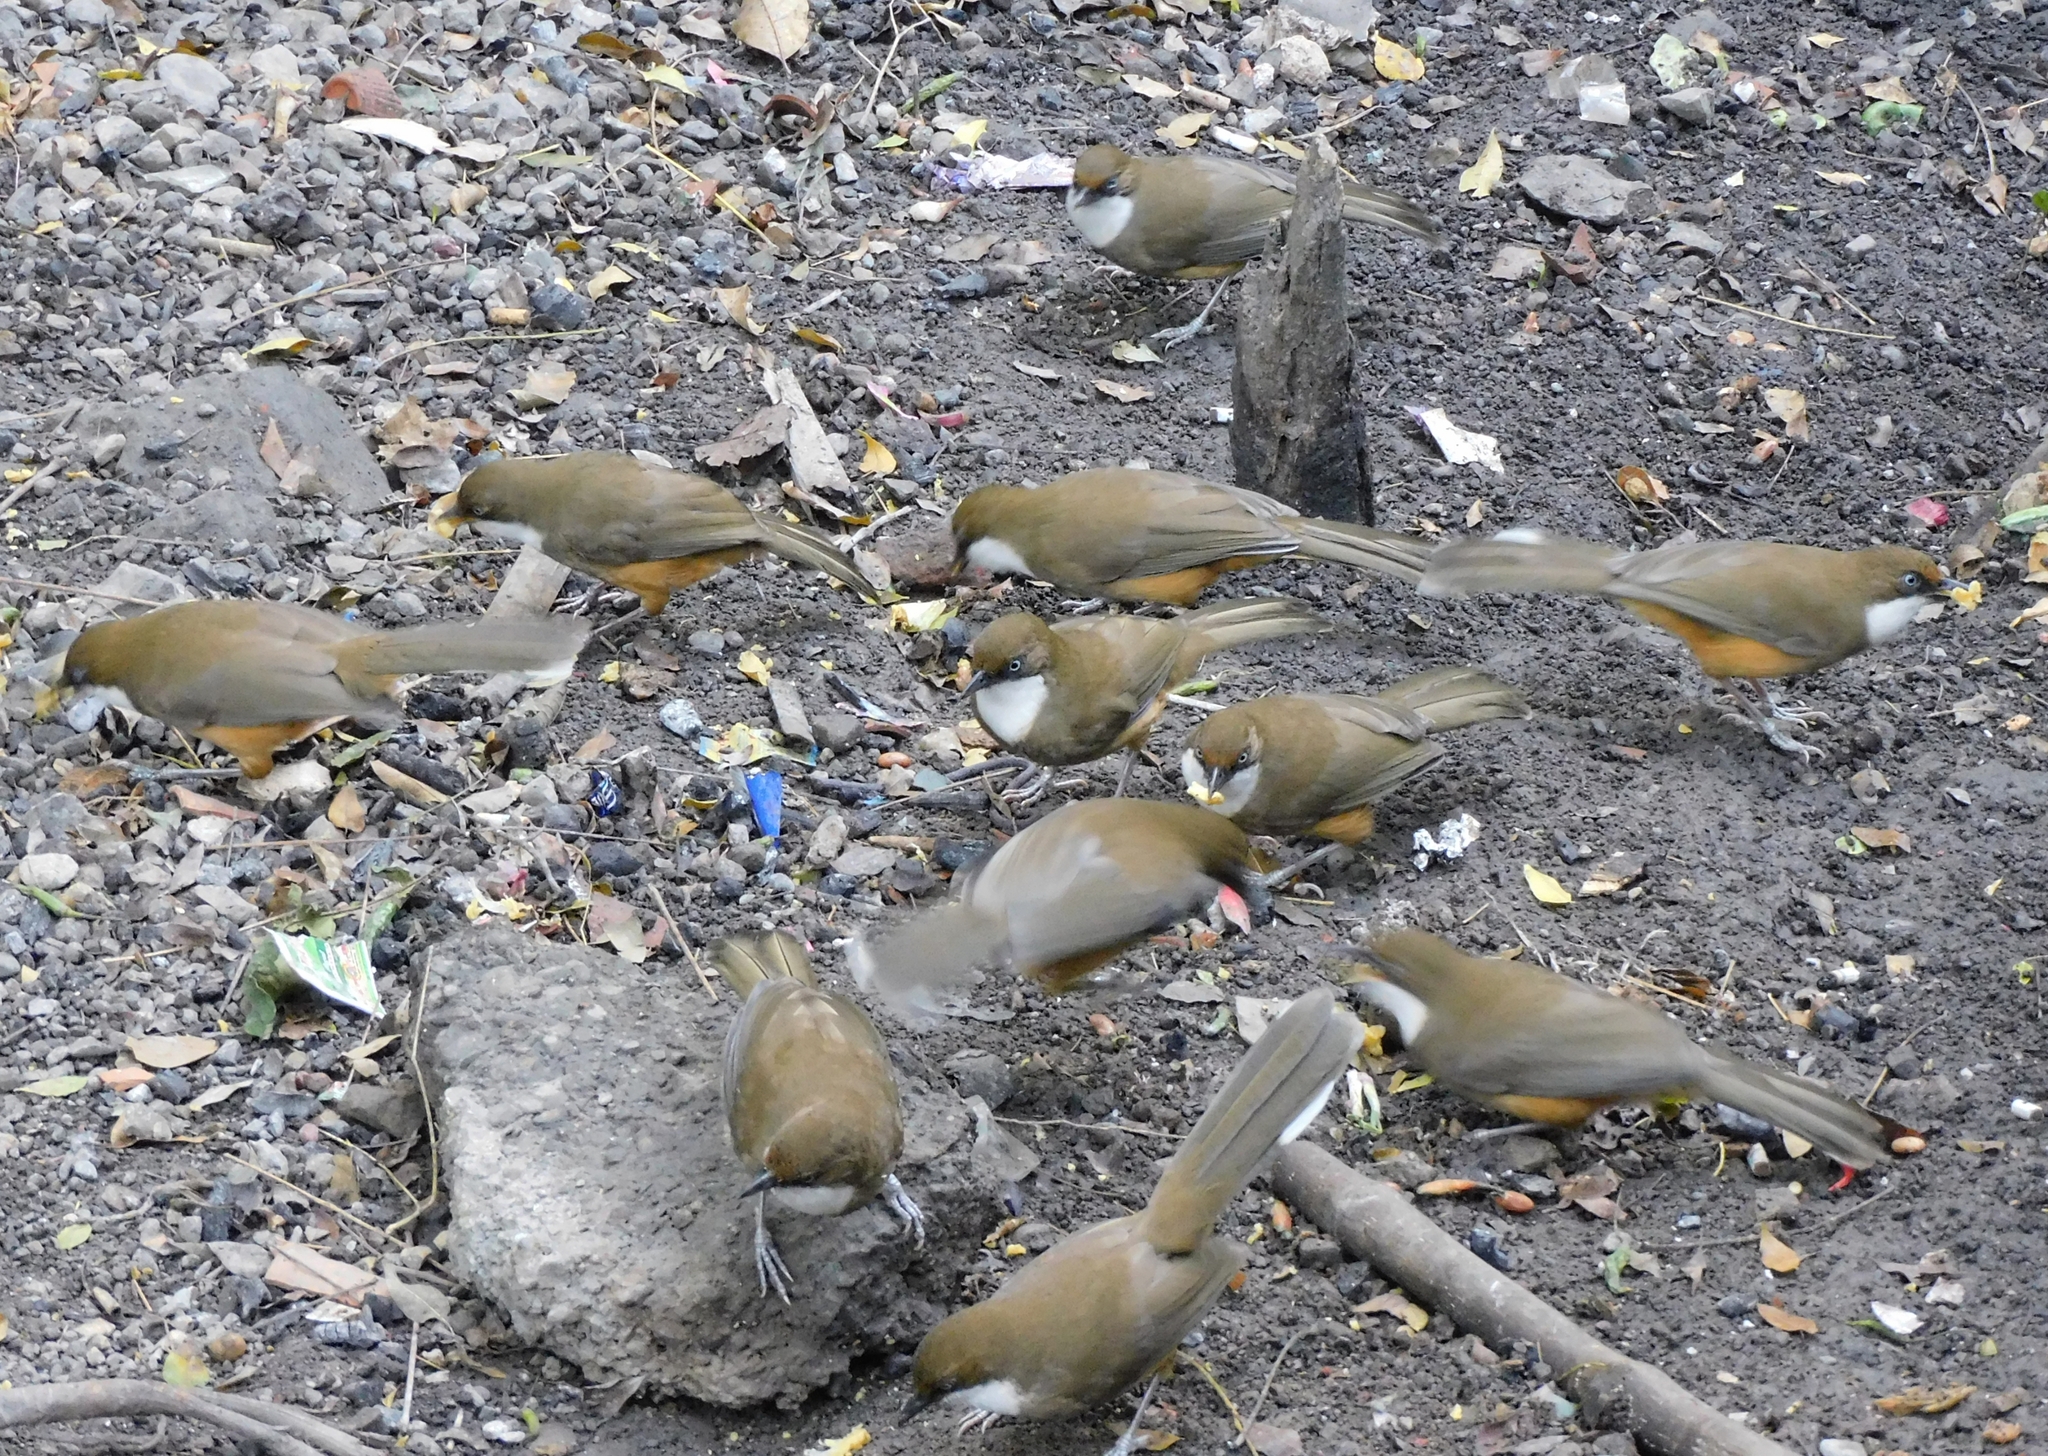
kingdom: Animalia
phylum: Chordata
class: Aves
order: Passeriformes
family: Leiothrichidae
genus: Garrulax
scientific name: Garrulax albogularis
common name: White-throated laughingthrush
